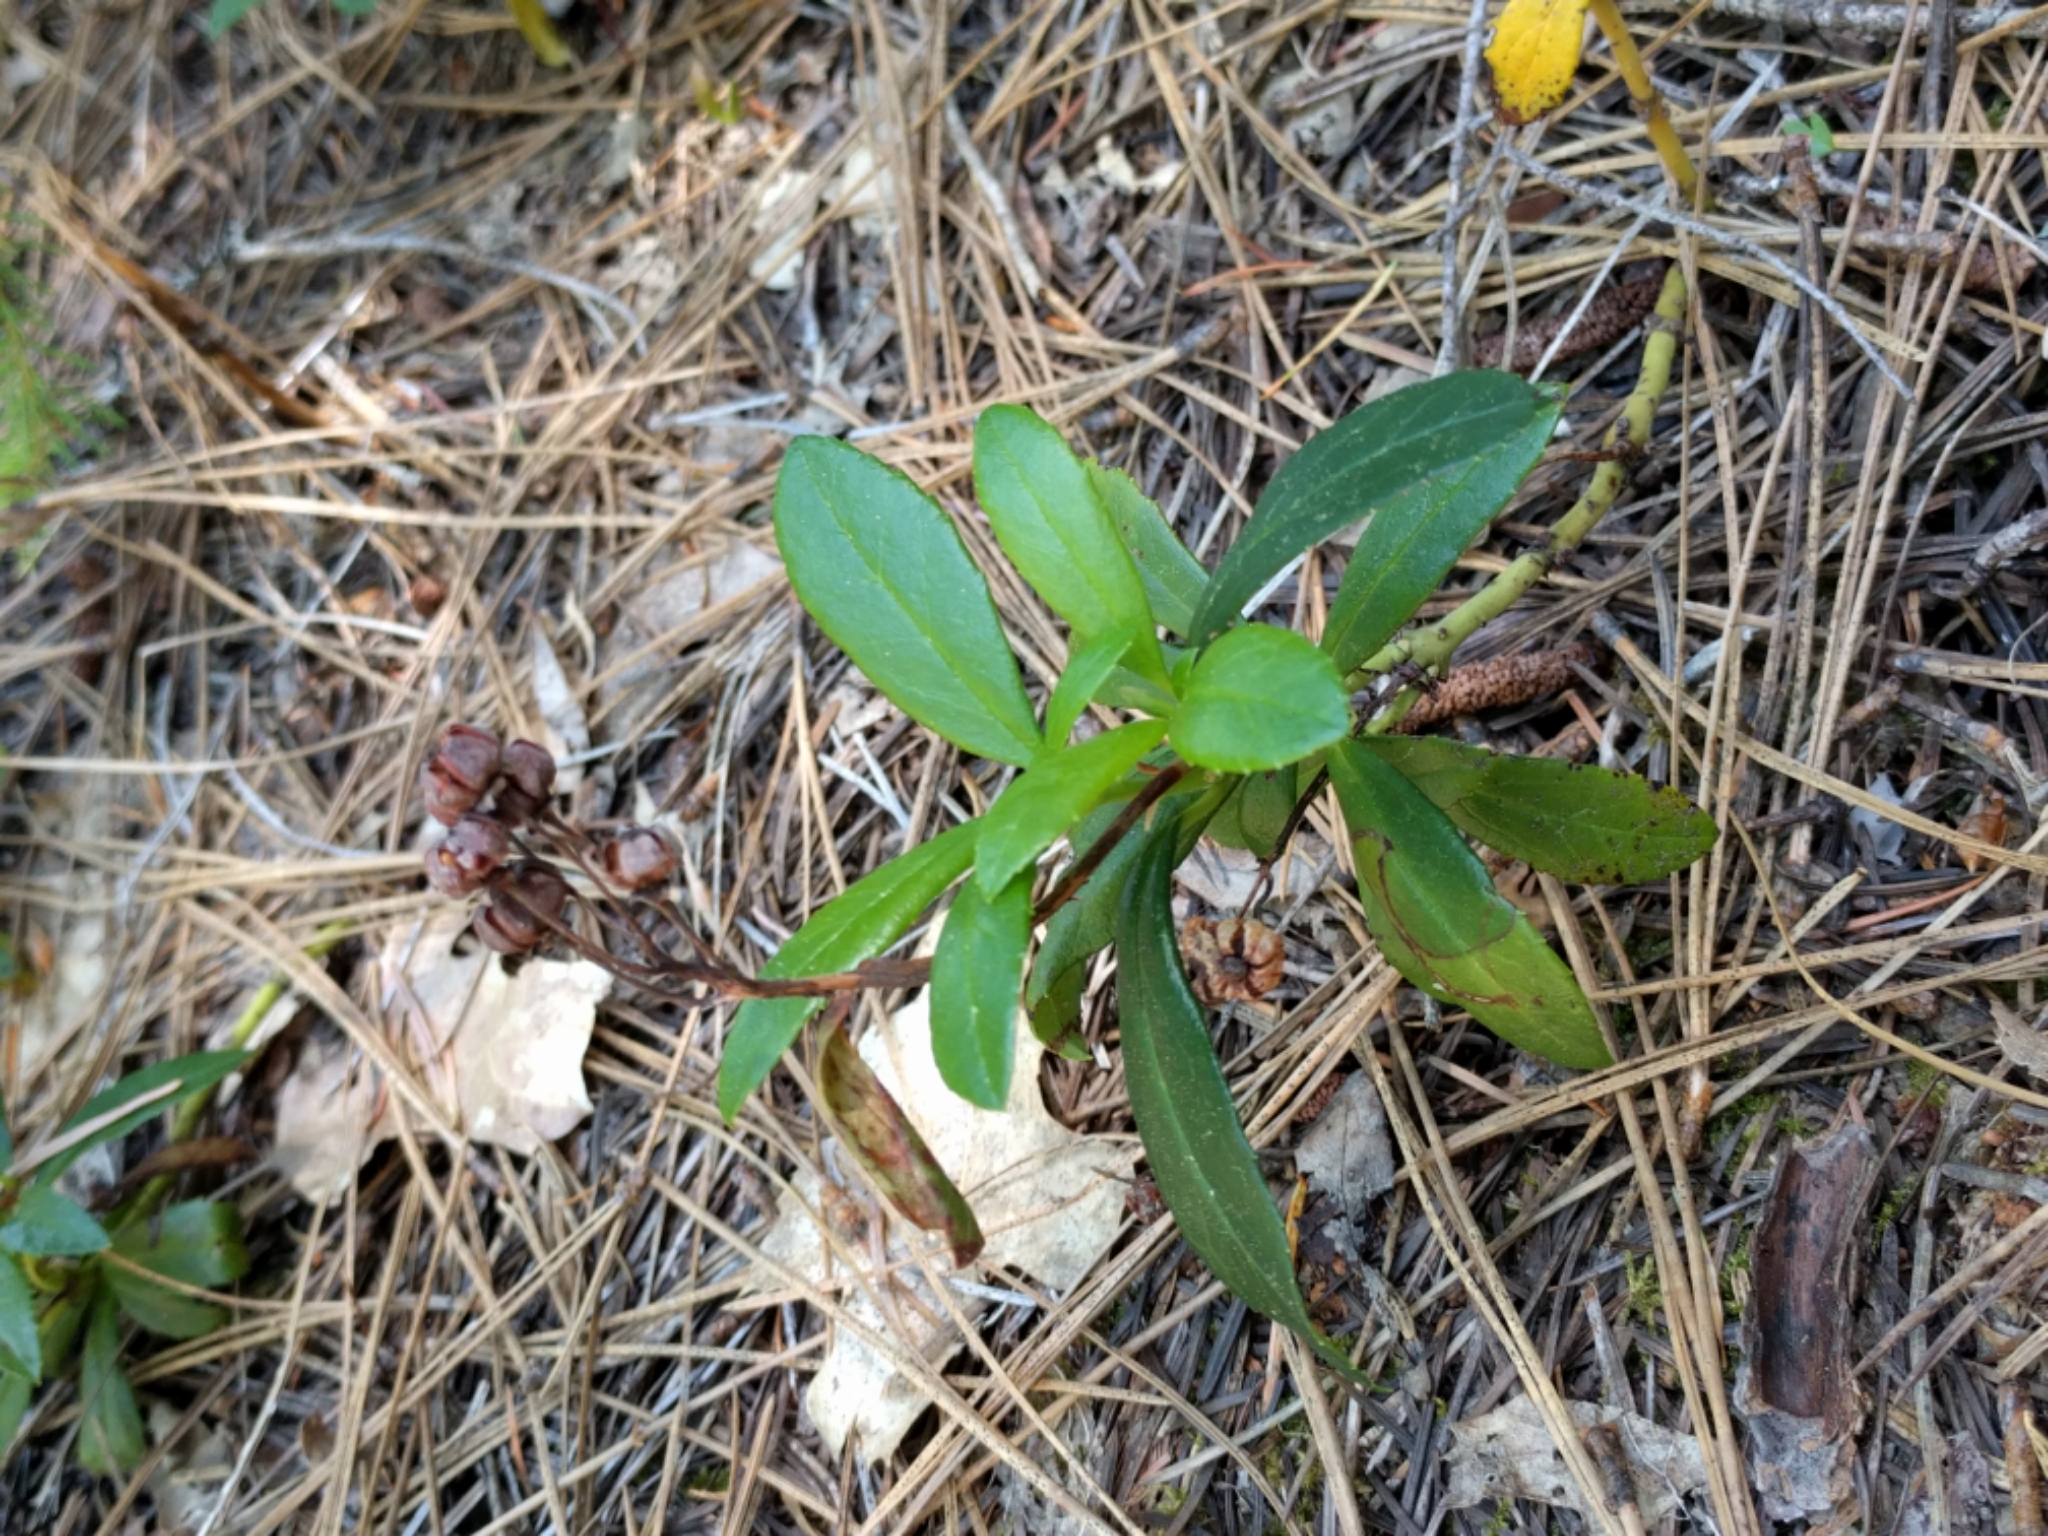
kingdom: Plantae
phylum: Tracheophyta
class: Magnoliopsida
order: Ericales
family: Ericaceae
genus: Chimaphila
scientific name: Chimaphila umbellata
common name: Pipsissewa
